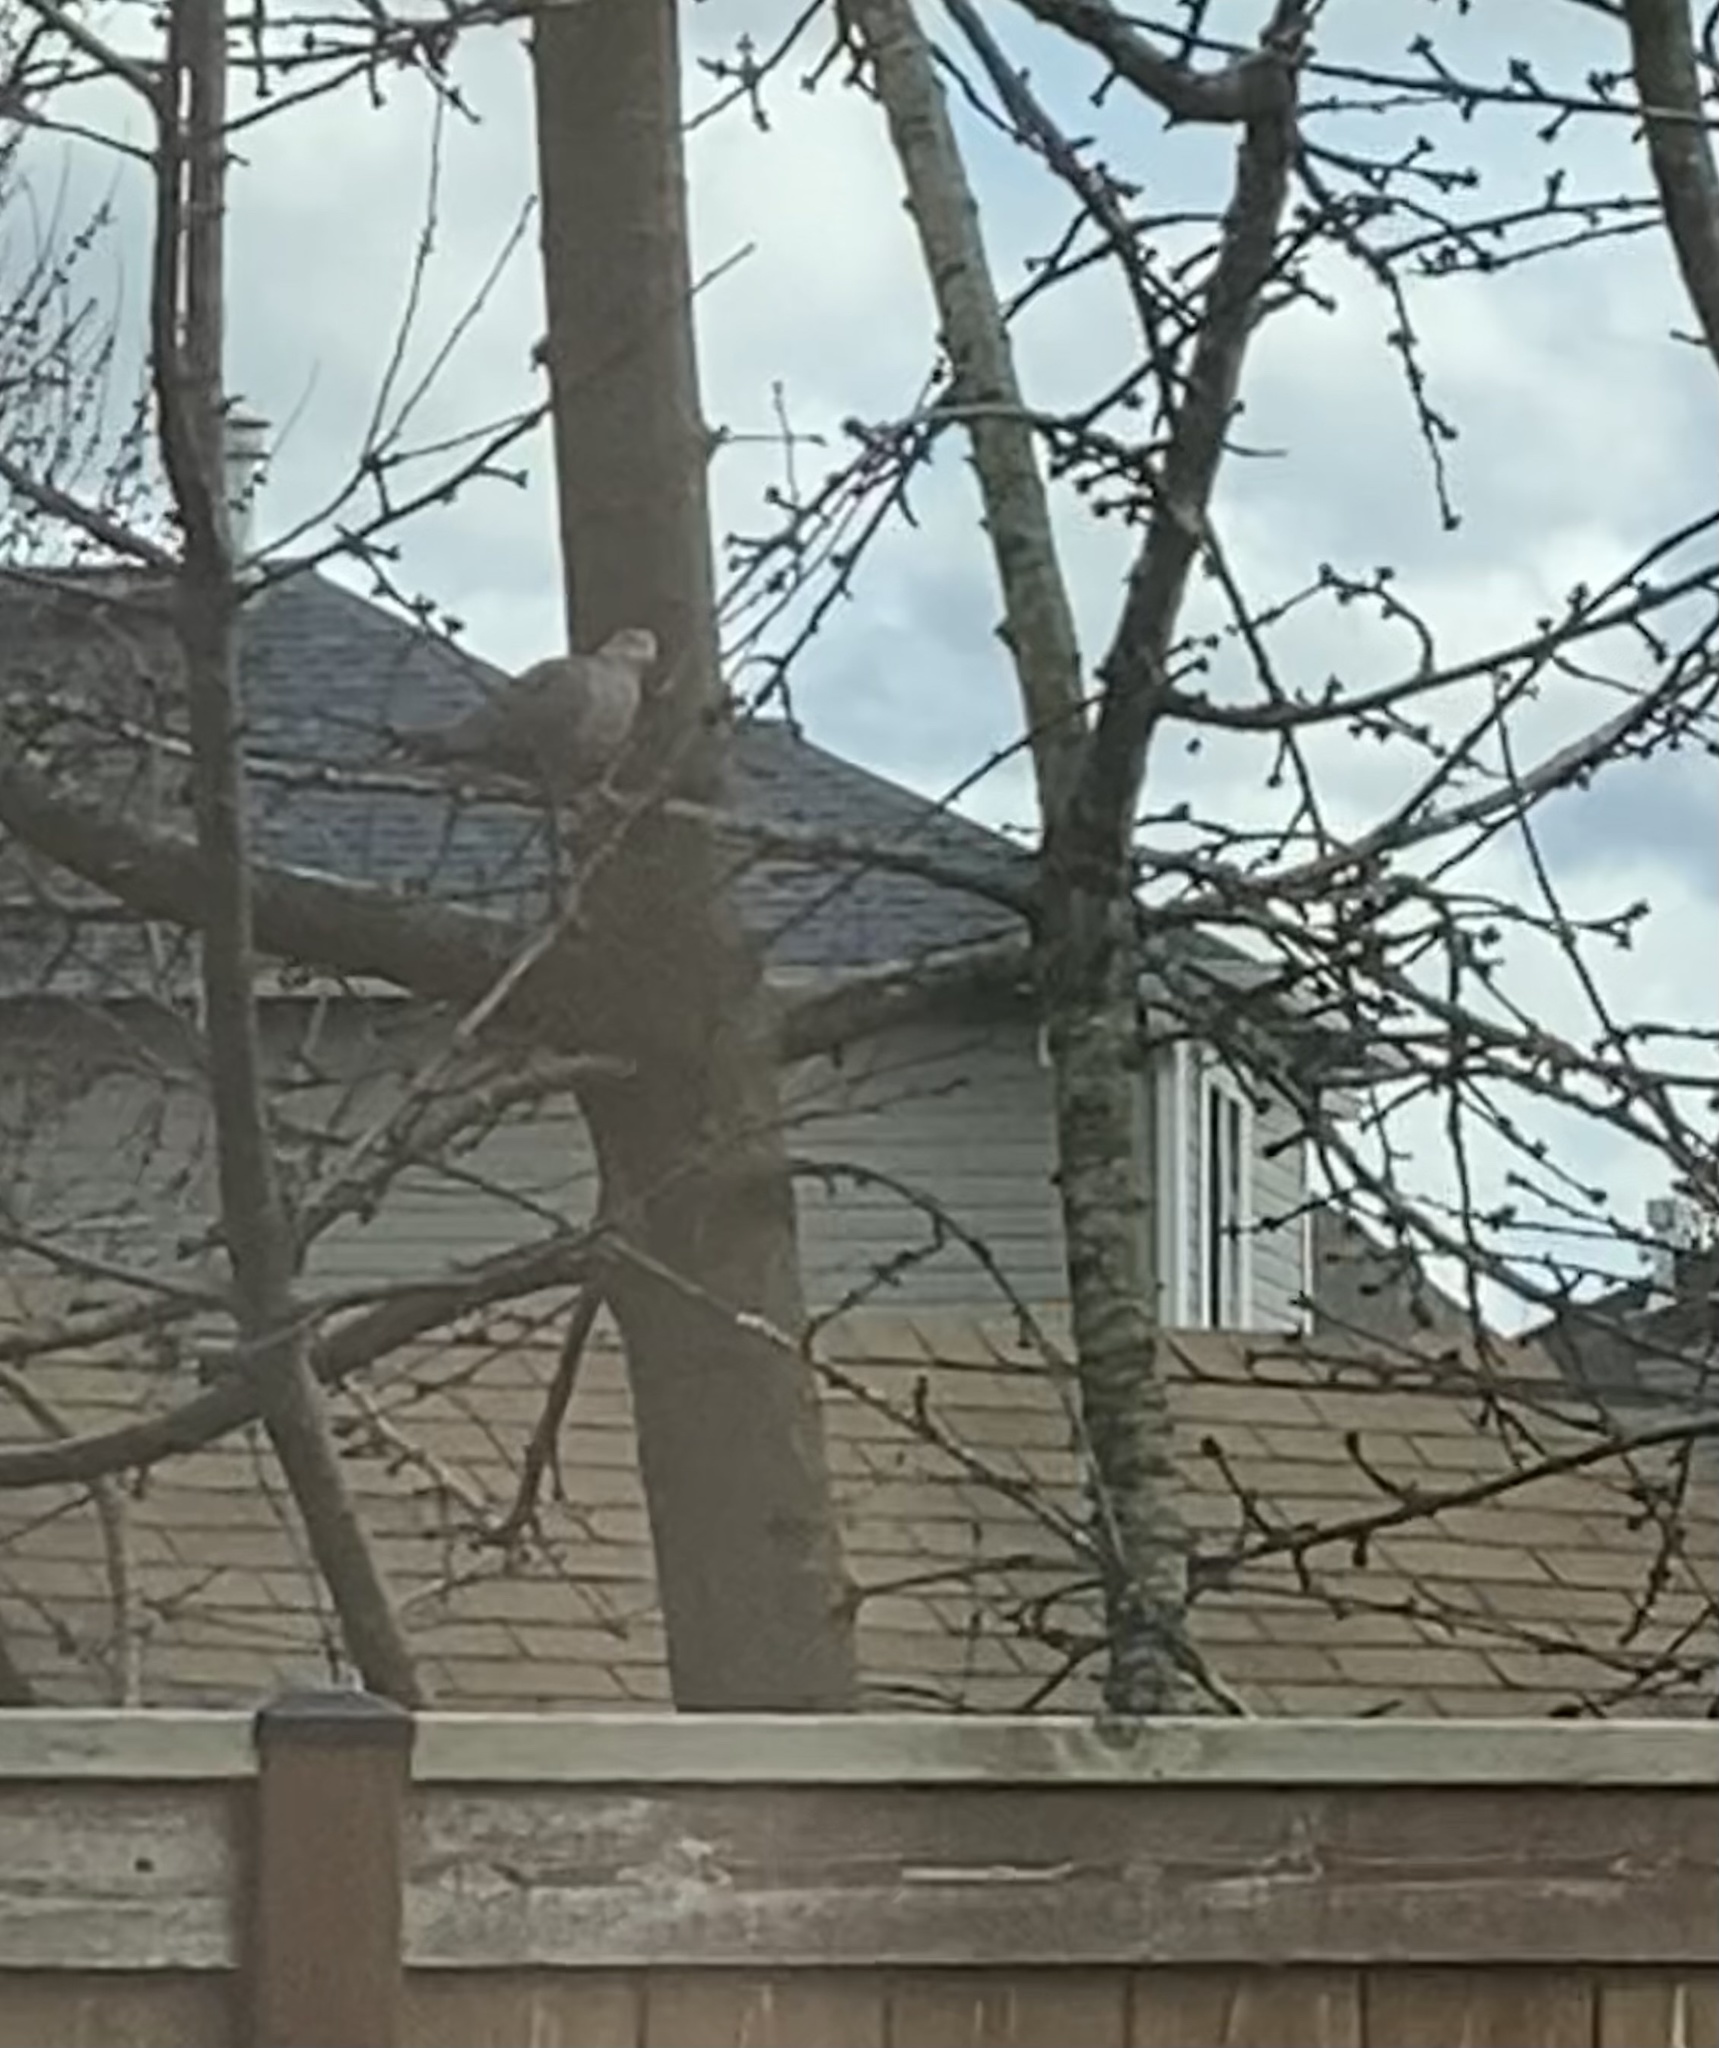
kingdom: Animalia
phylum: Chordata
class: Aves
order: Columbiformes
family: Columbidae
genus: Streptopelia
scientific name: Streptopelia decaocto
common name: Eurasian collared dove
